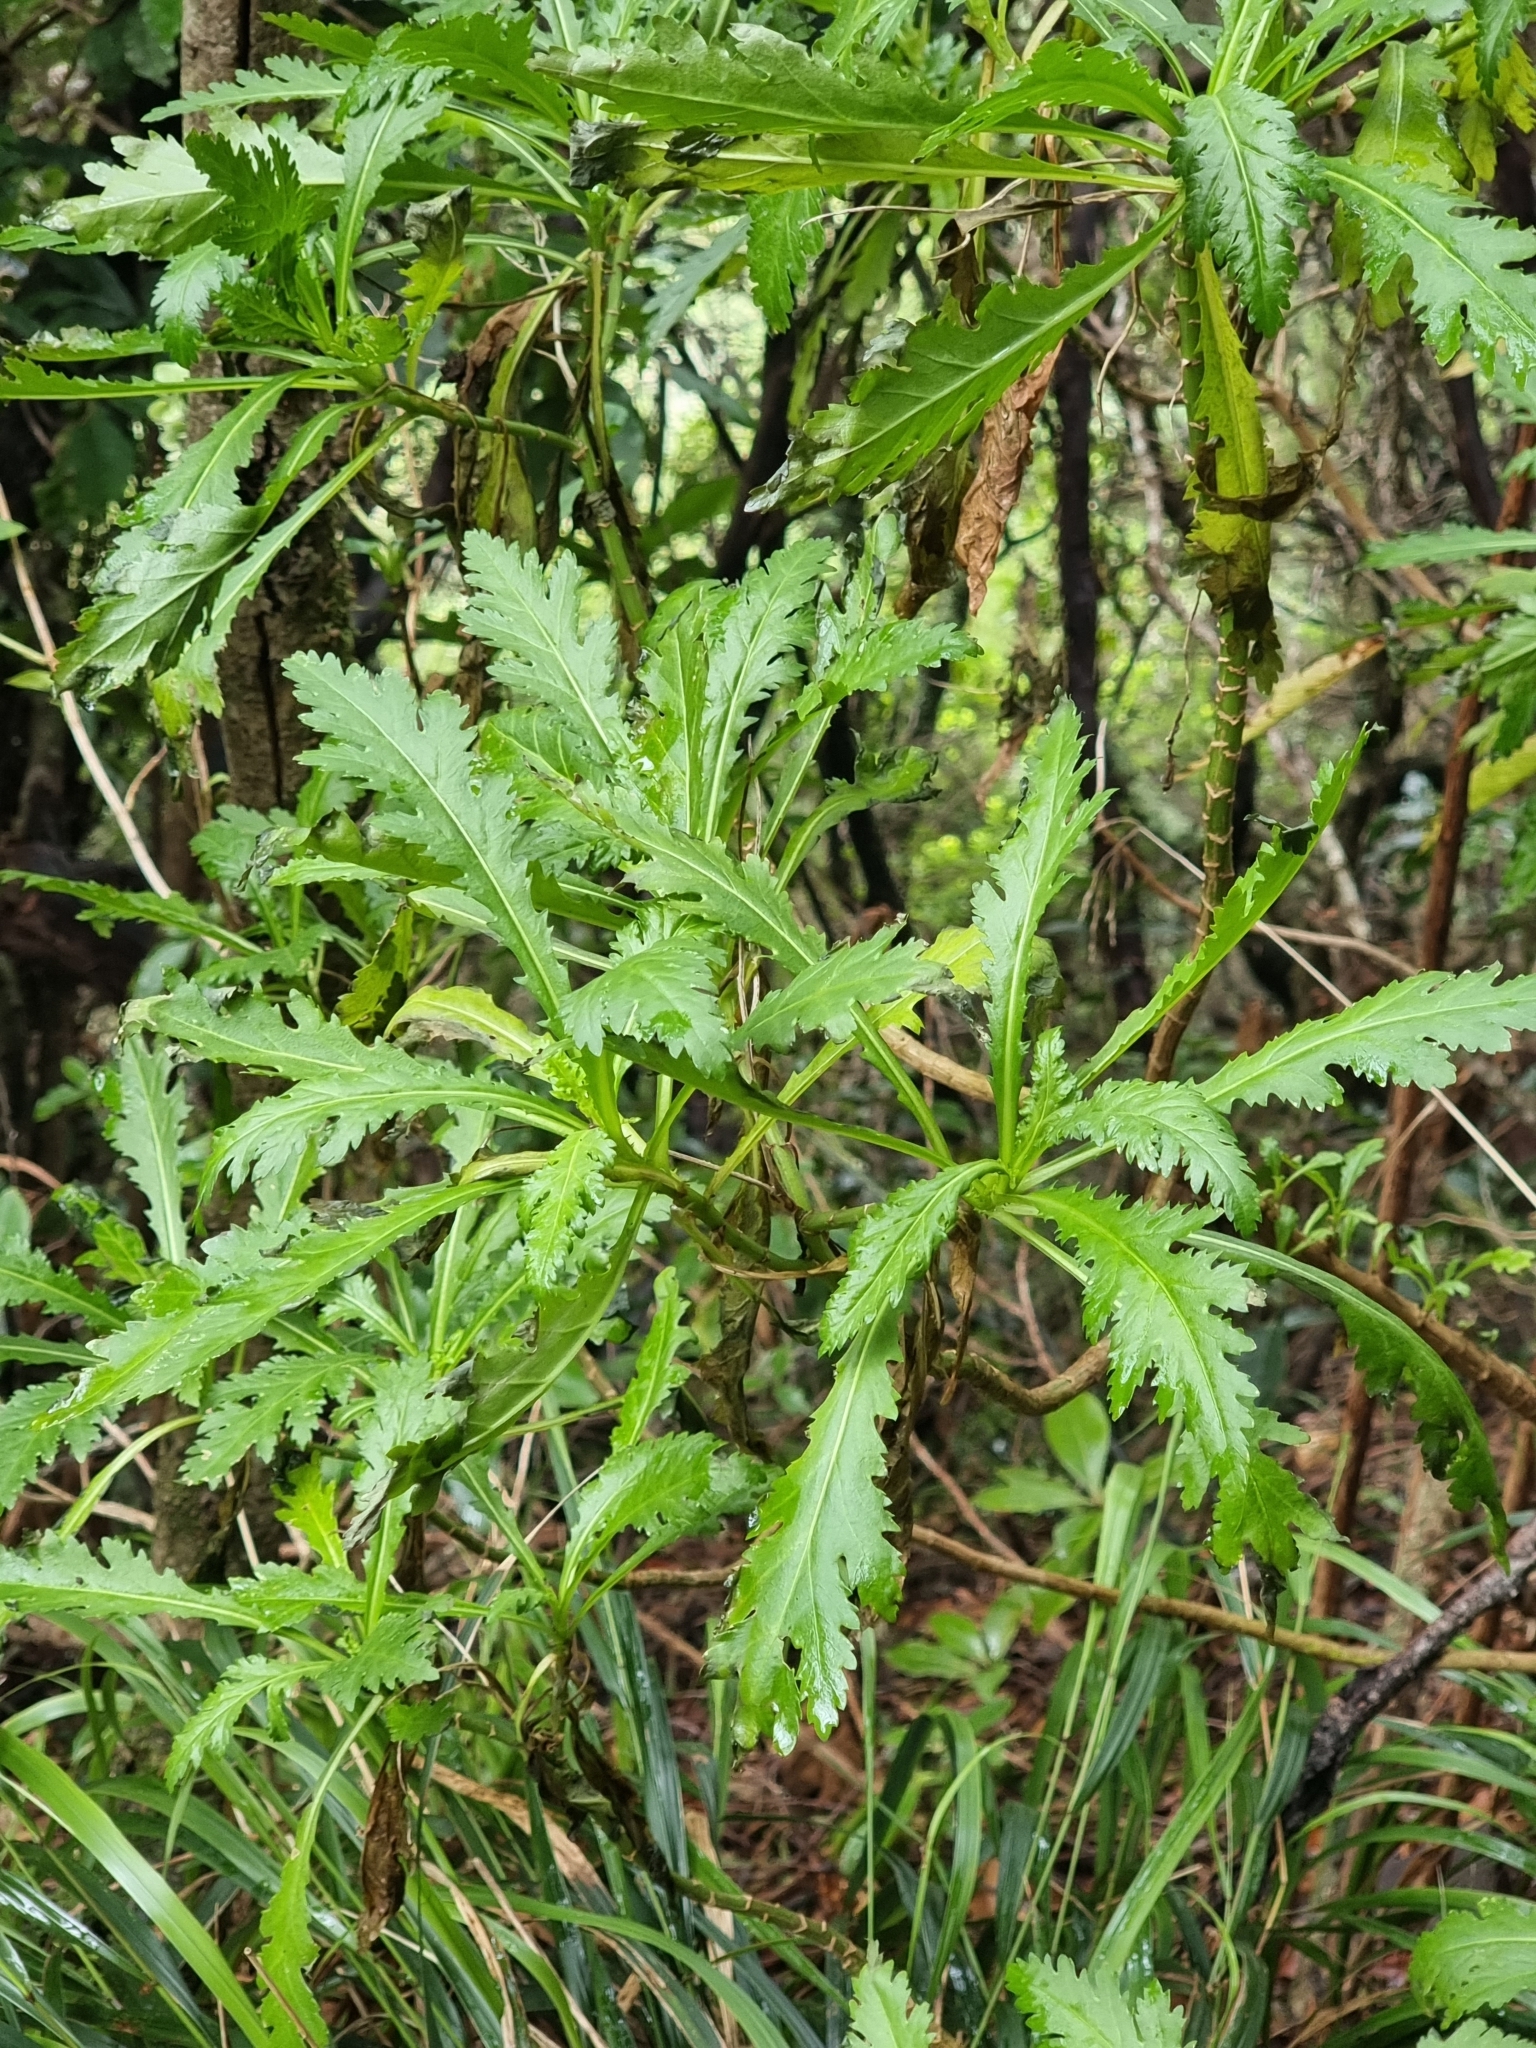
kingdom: Plantae
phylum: Tracheophyta
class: Magnoliopsida
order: Asterales
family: Asteraceae
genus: Argyranthemum
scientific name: Argyranthemum pinnatifidum
